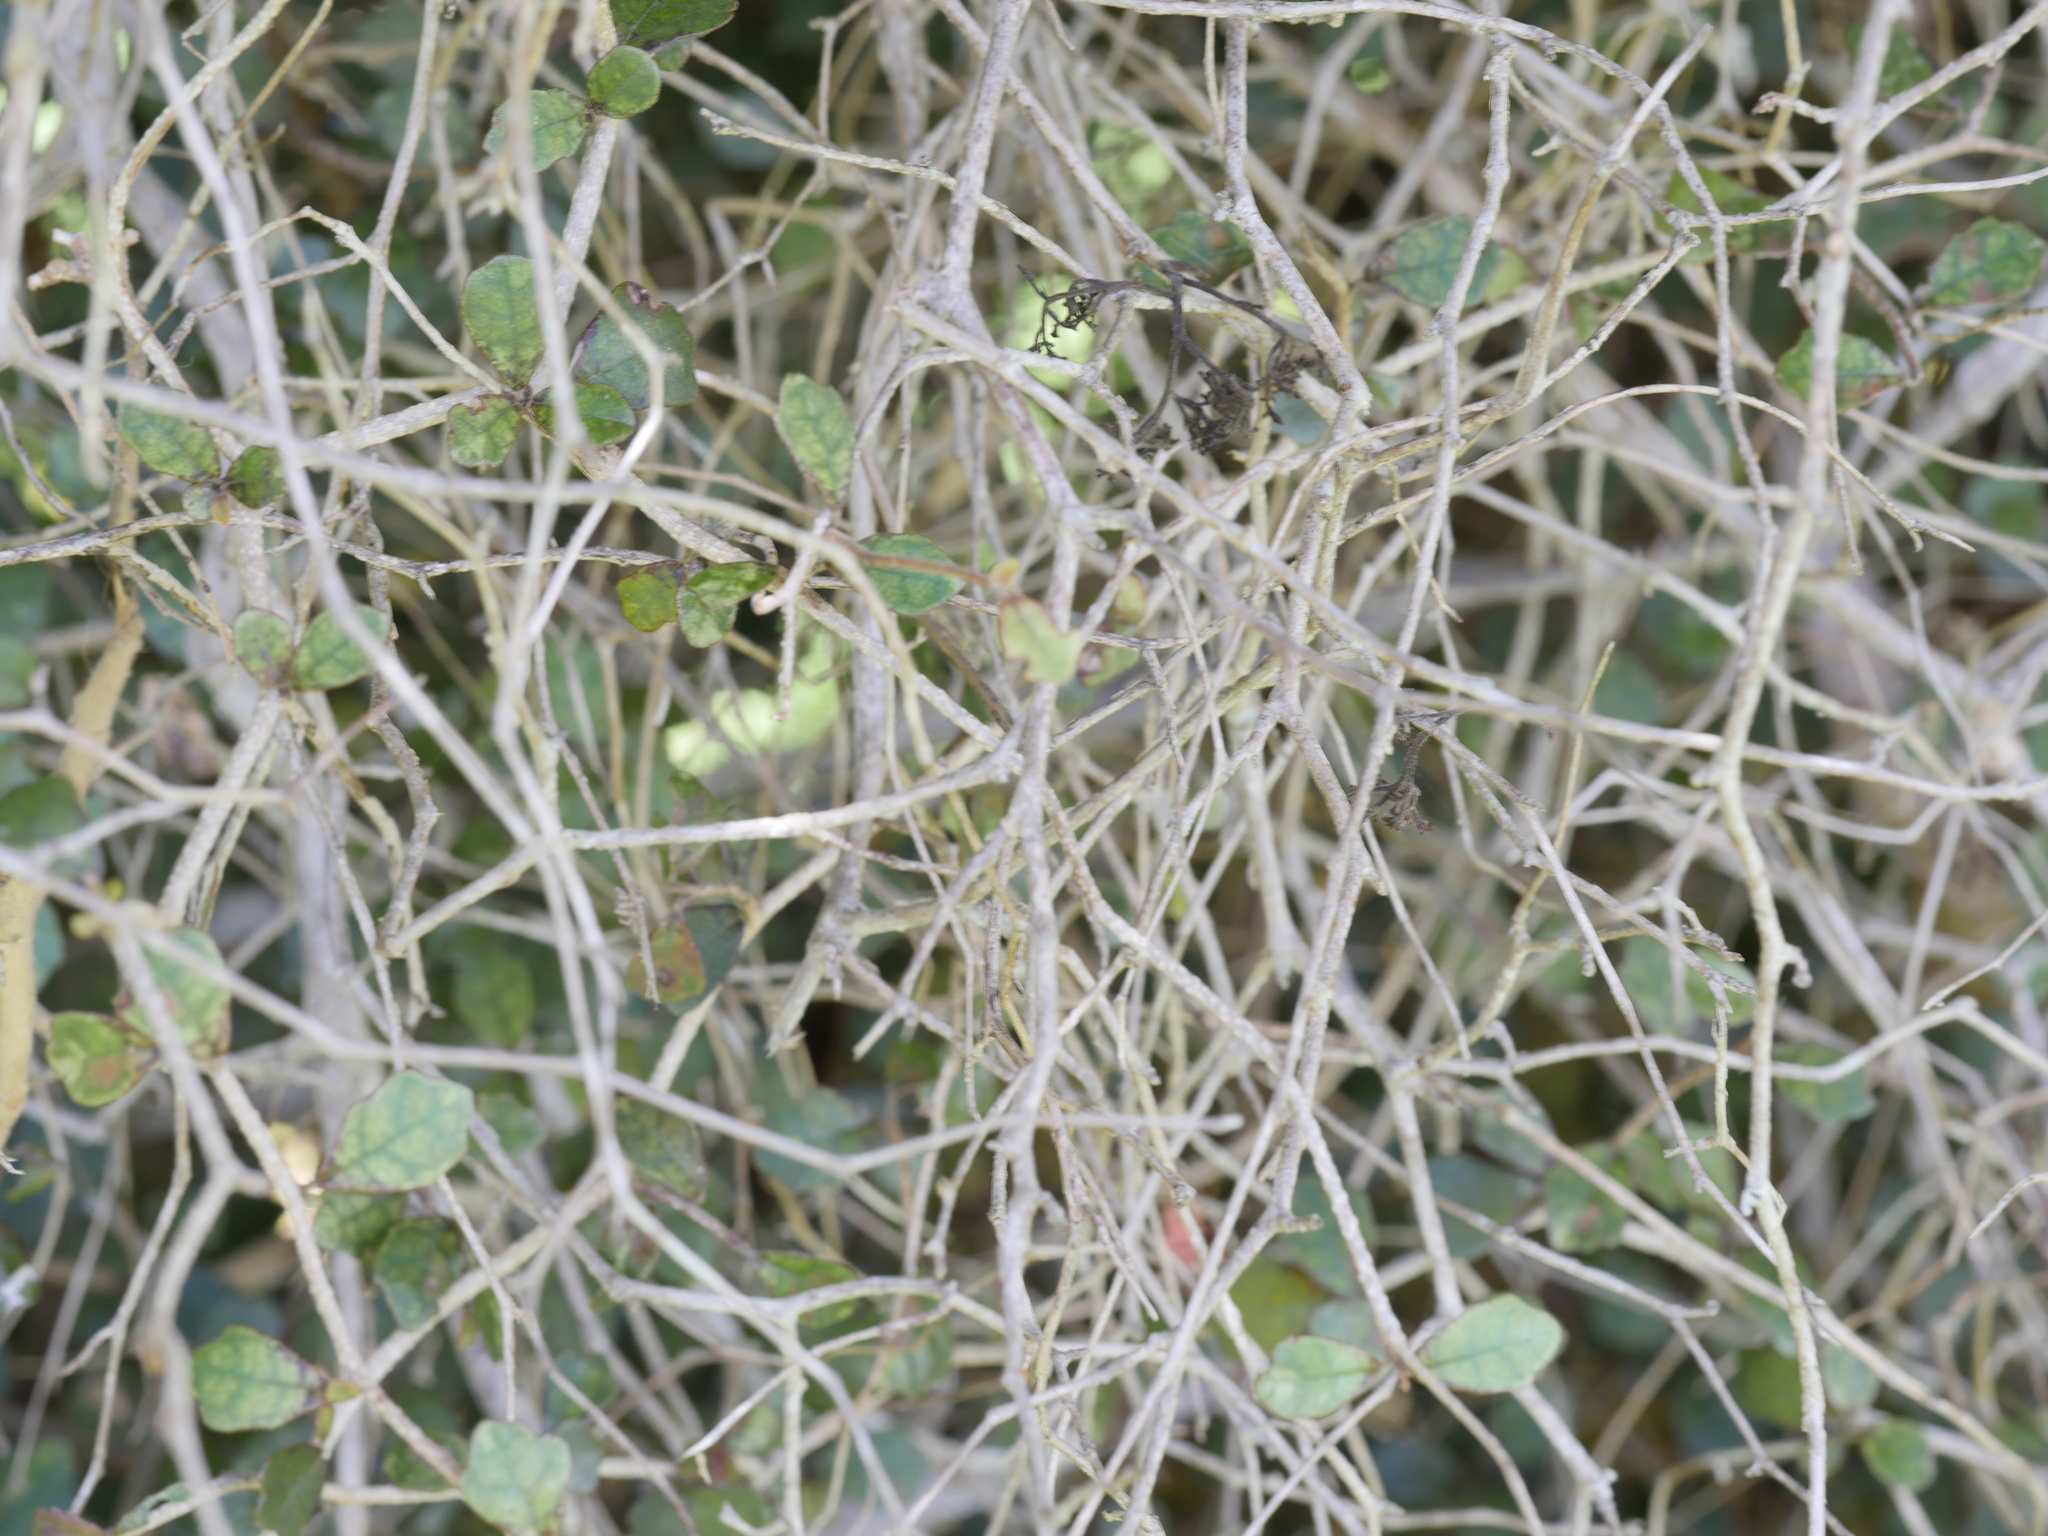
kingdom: Plantae
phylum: Tracheophyta
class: Magnoliopsida
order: Apiales
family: Pennantiaceae
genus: Pennantia
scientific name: Pennantia corymbosa
